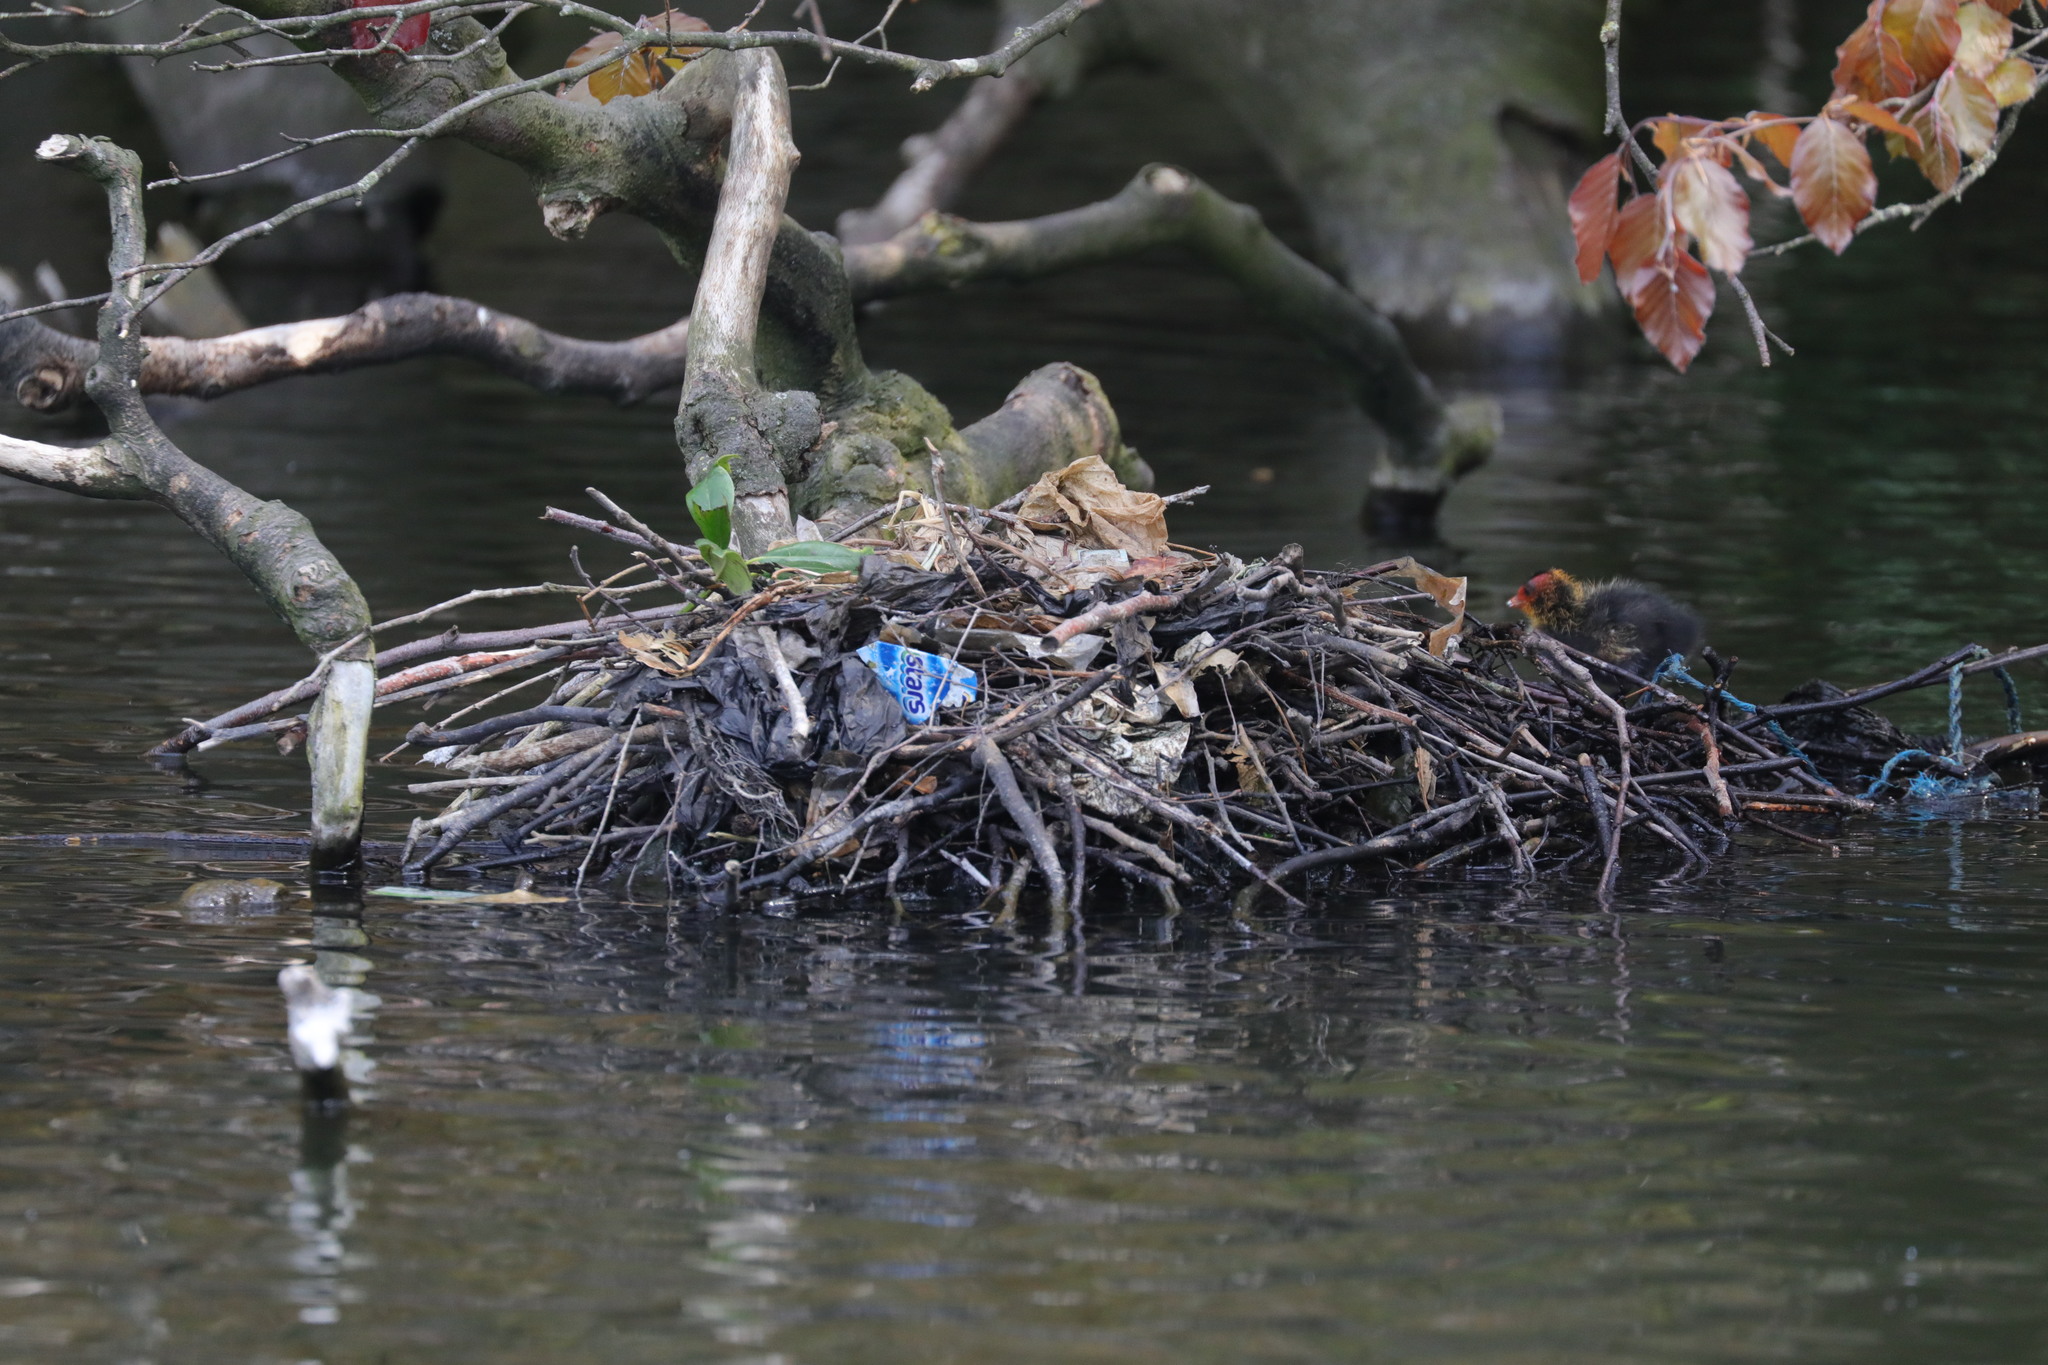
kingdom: Animalia
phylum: Chordata
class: Aves
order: Gruiformes
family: Rallidae
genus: Fulica
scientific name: Fulica atra
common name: Eurasian coot
